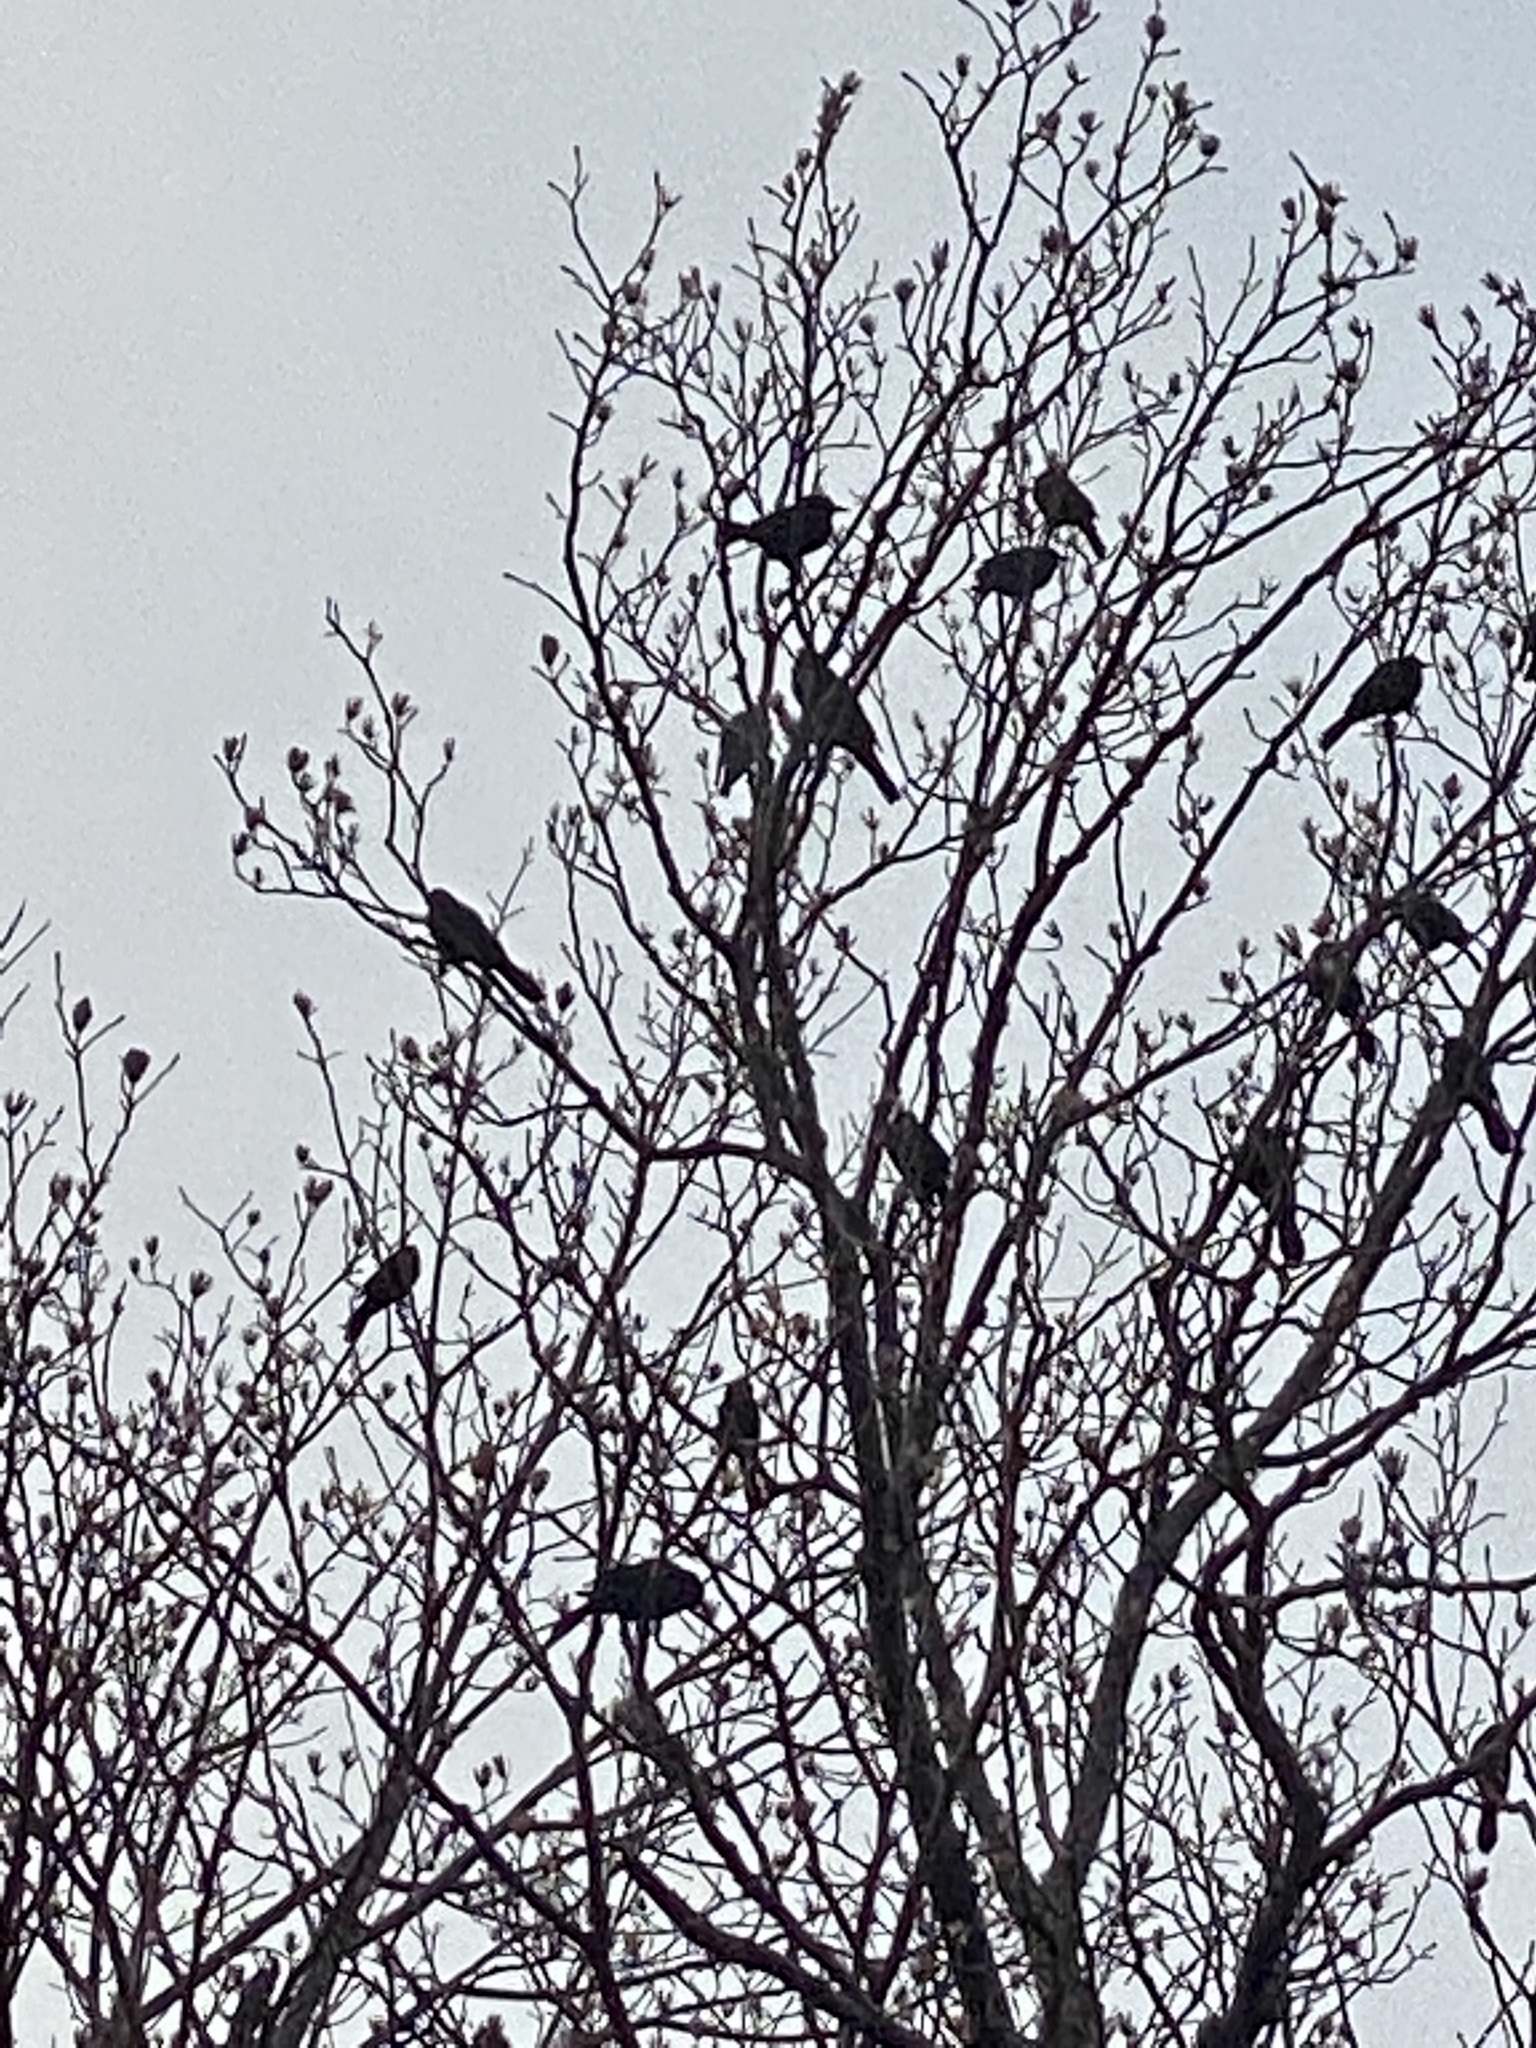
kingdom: Animalia
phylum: Chordata
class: Aves
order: Passeriformes
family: Icteridae
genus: Quiscalus
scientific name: Quiscalus quiscula
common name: Common grackle
